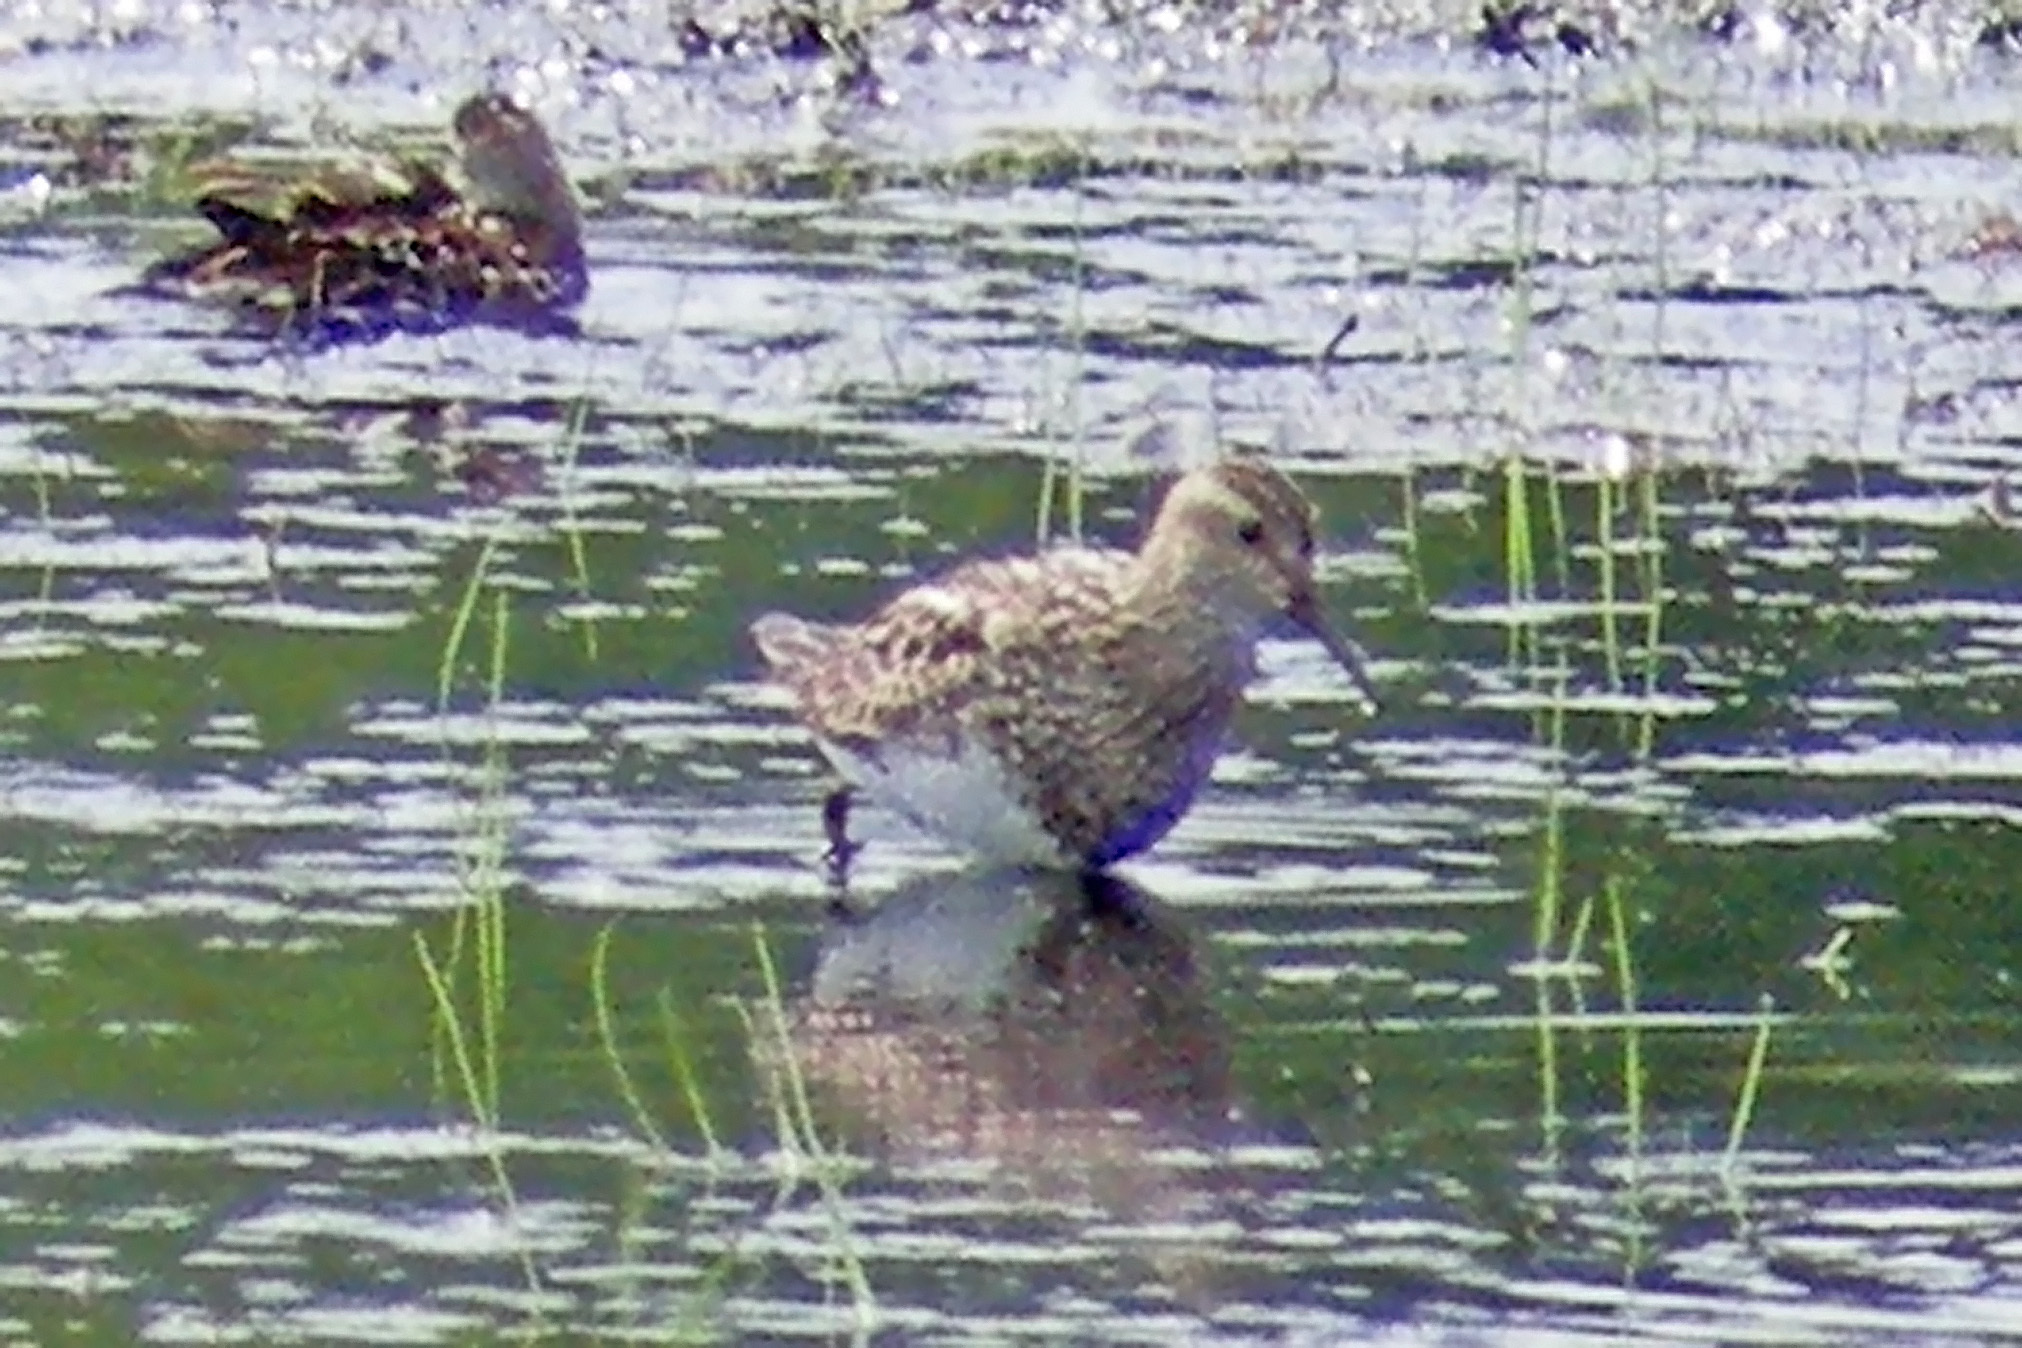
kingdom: Animalia
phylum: Chordata
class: Aves
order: Charadriiformes
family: Scolopacidae
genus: Calidris
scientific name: Calidris melanotos
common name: Pectoral sandpiper
